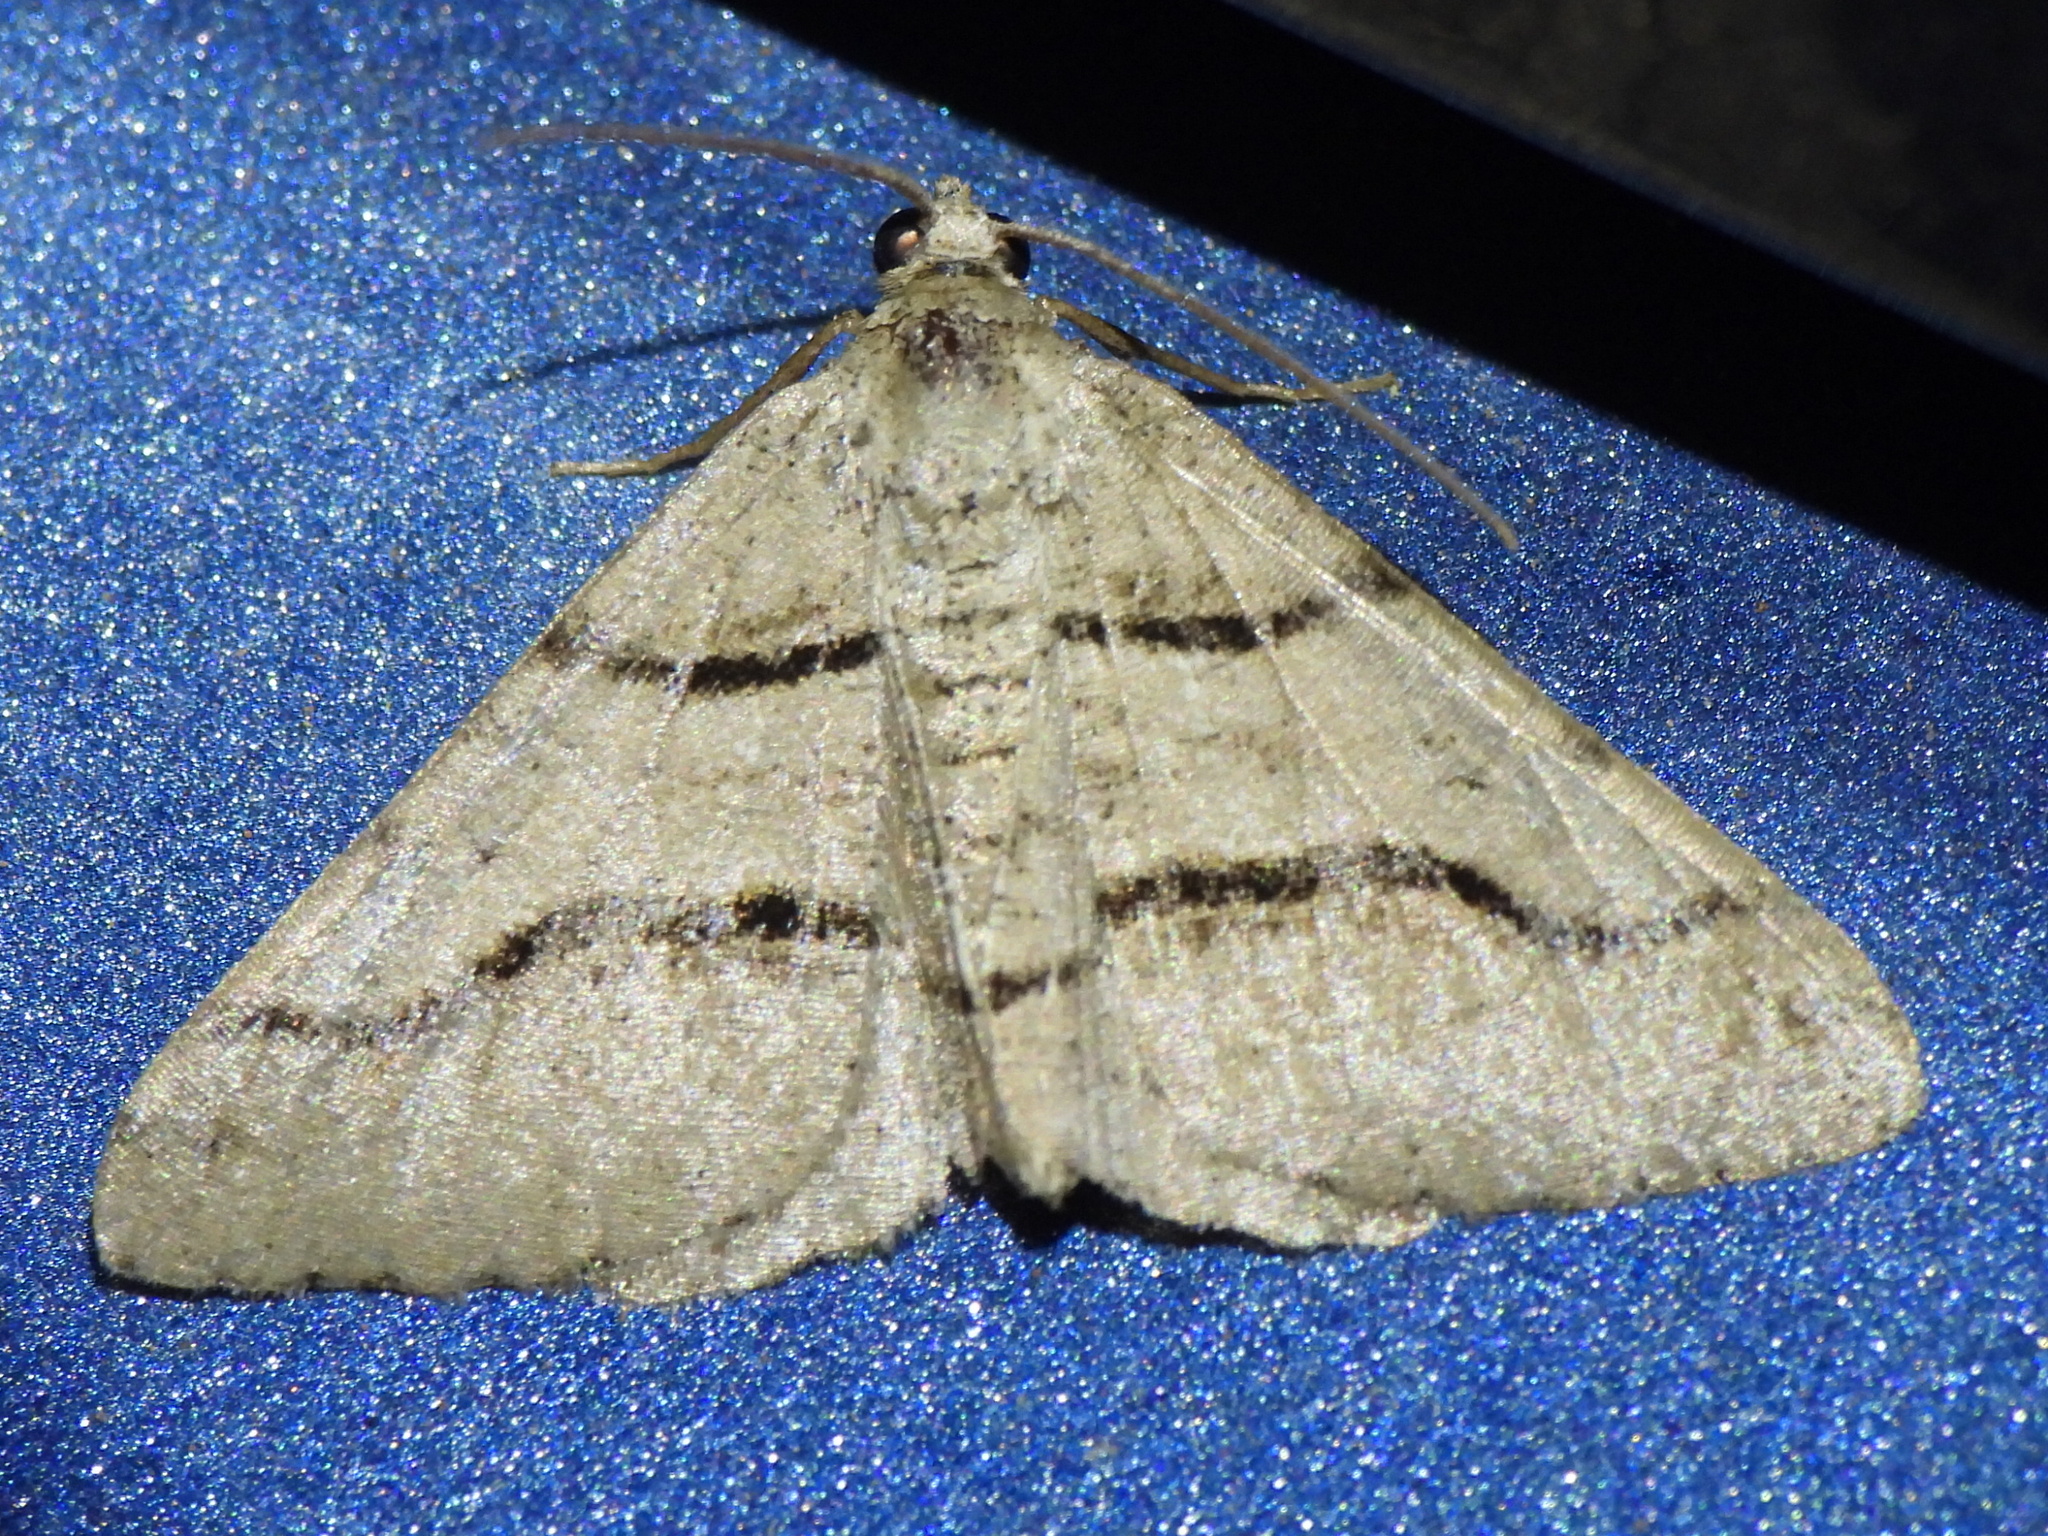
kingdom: Animalia
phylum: Arthropoda
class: Insecta
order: Lepidoptera
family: Geometridae
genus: Digrammia
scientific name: Digrammia continuata
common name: Curve-lined angle
